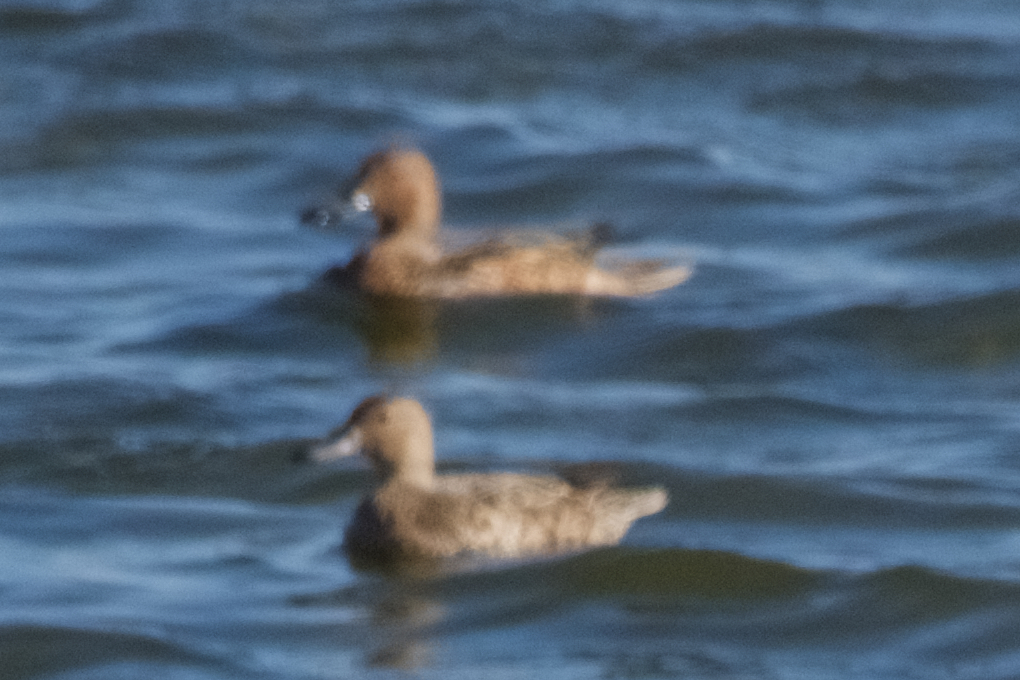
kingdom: Animalia
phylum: Chordata
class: Aves
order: Anseriformes
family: Anatidae
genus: Spatula
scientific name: Spatula cyanoptera
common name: Cinnamon teal
